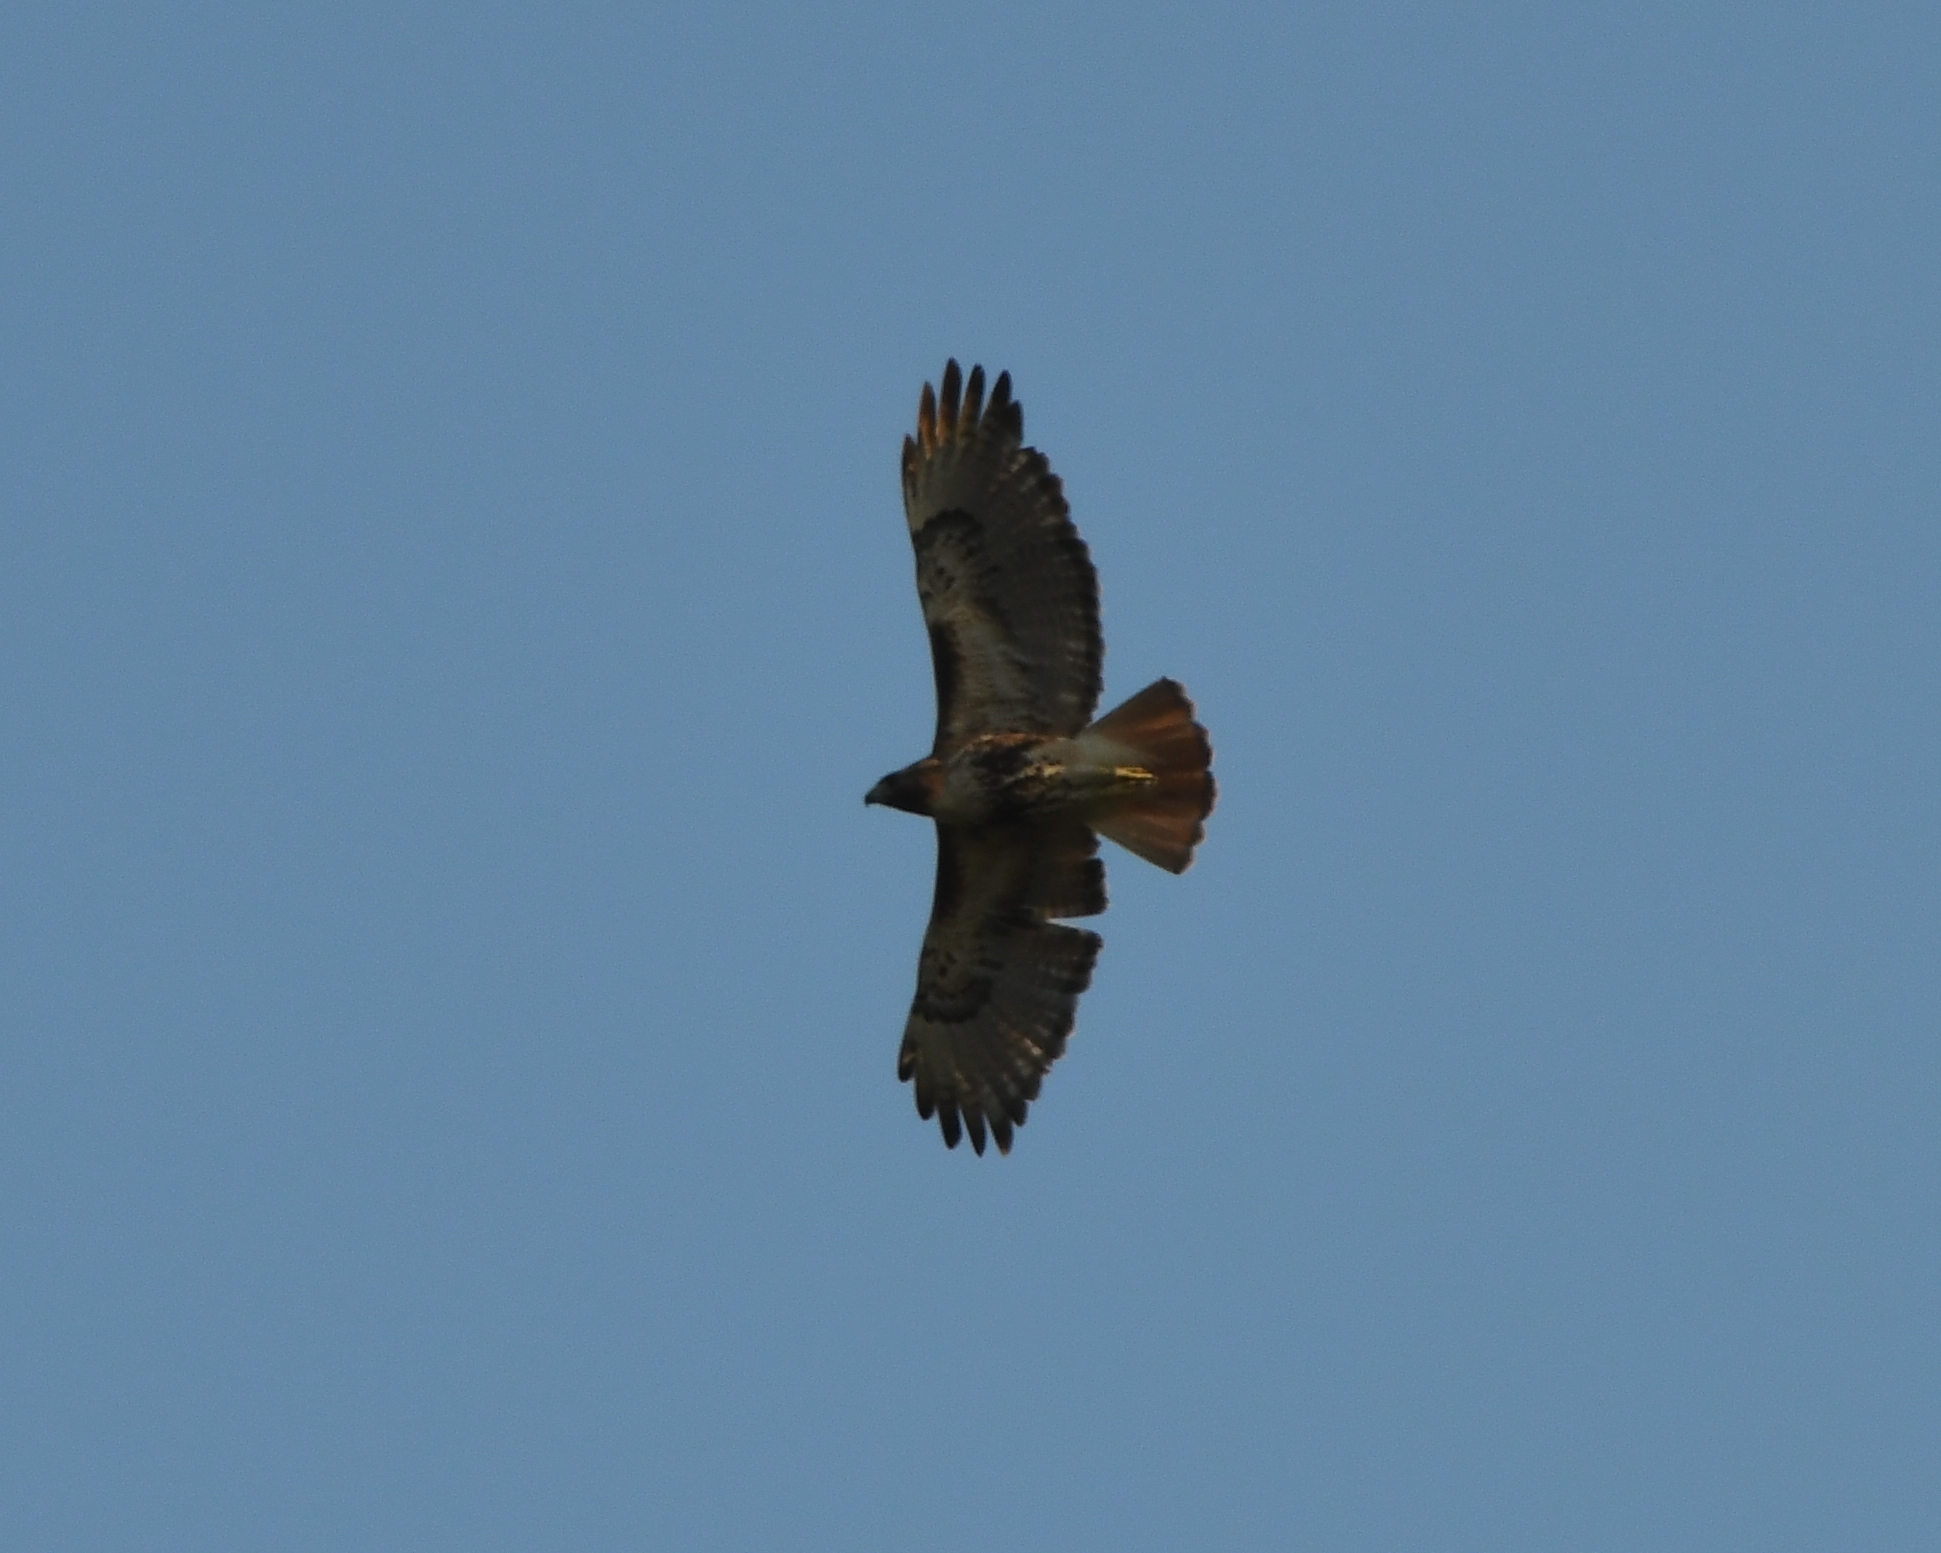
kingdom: Animalia
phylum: Chordata
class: Aves
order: Accipitriformes
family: Accipitridae
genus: Buteo
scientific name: Buteo jamaicensis
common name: Red-tailed hawk
